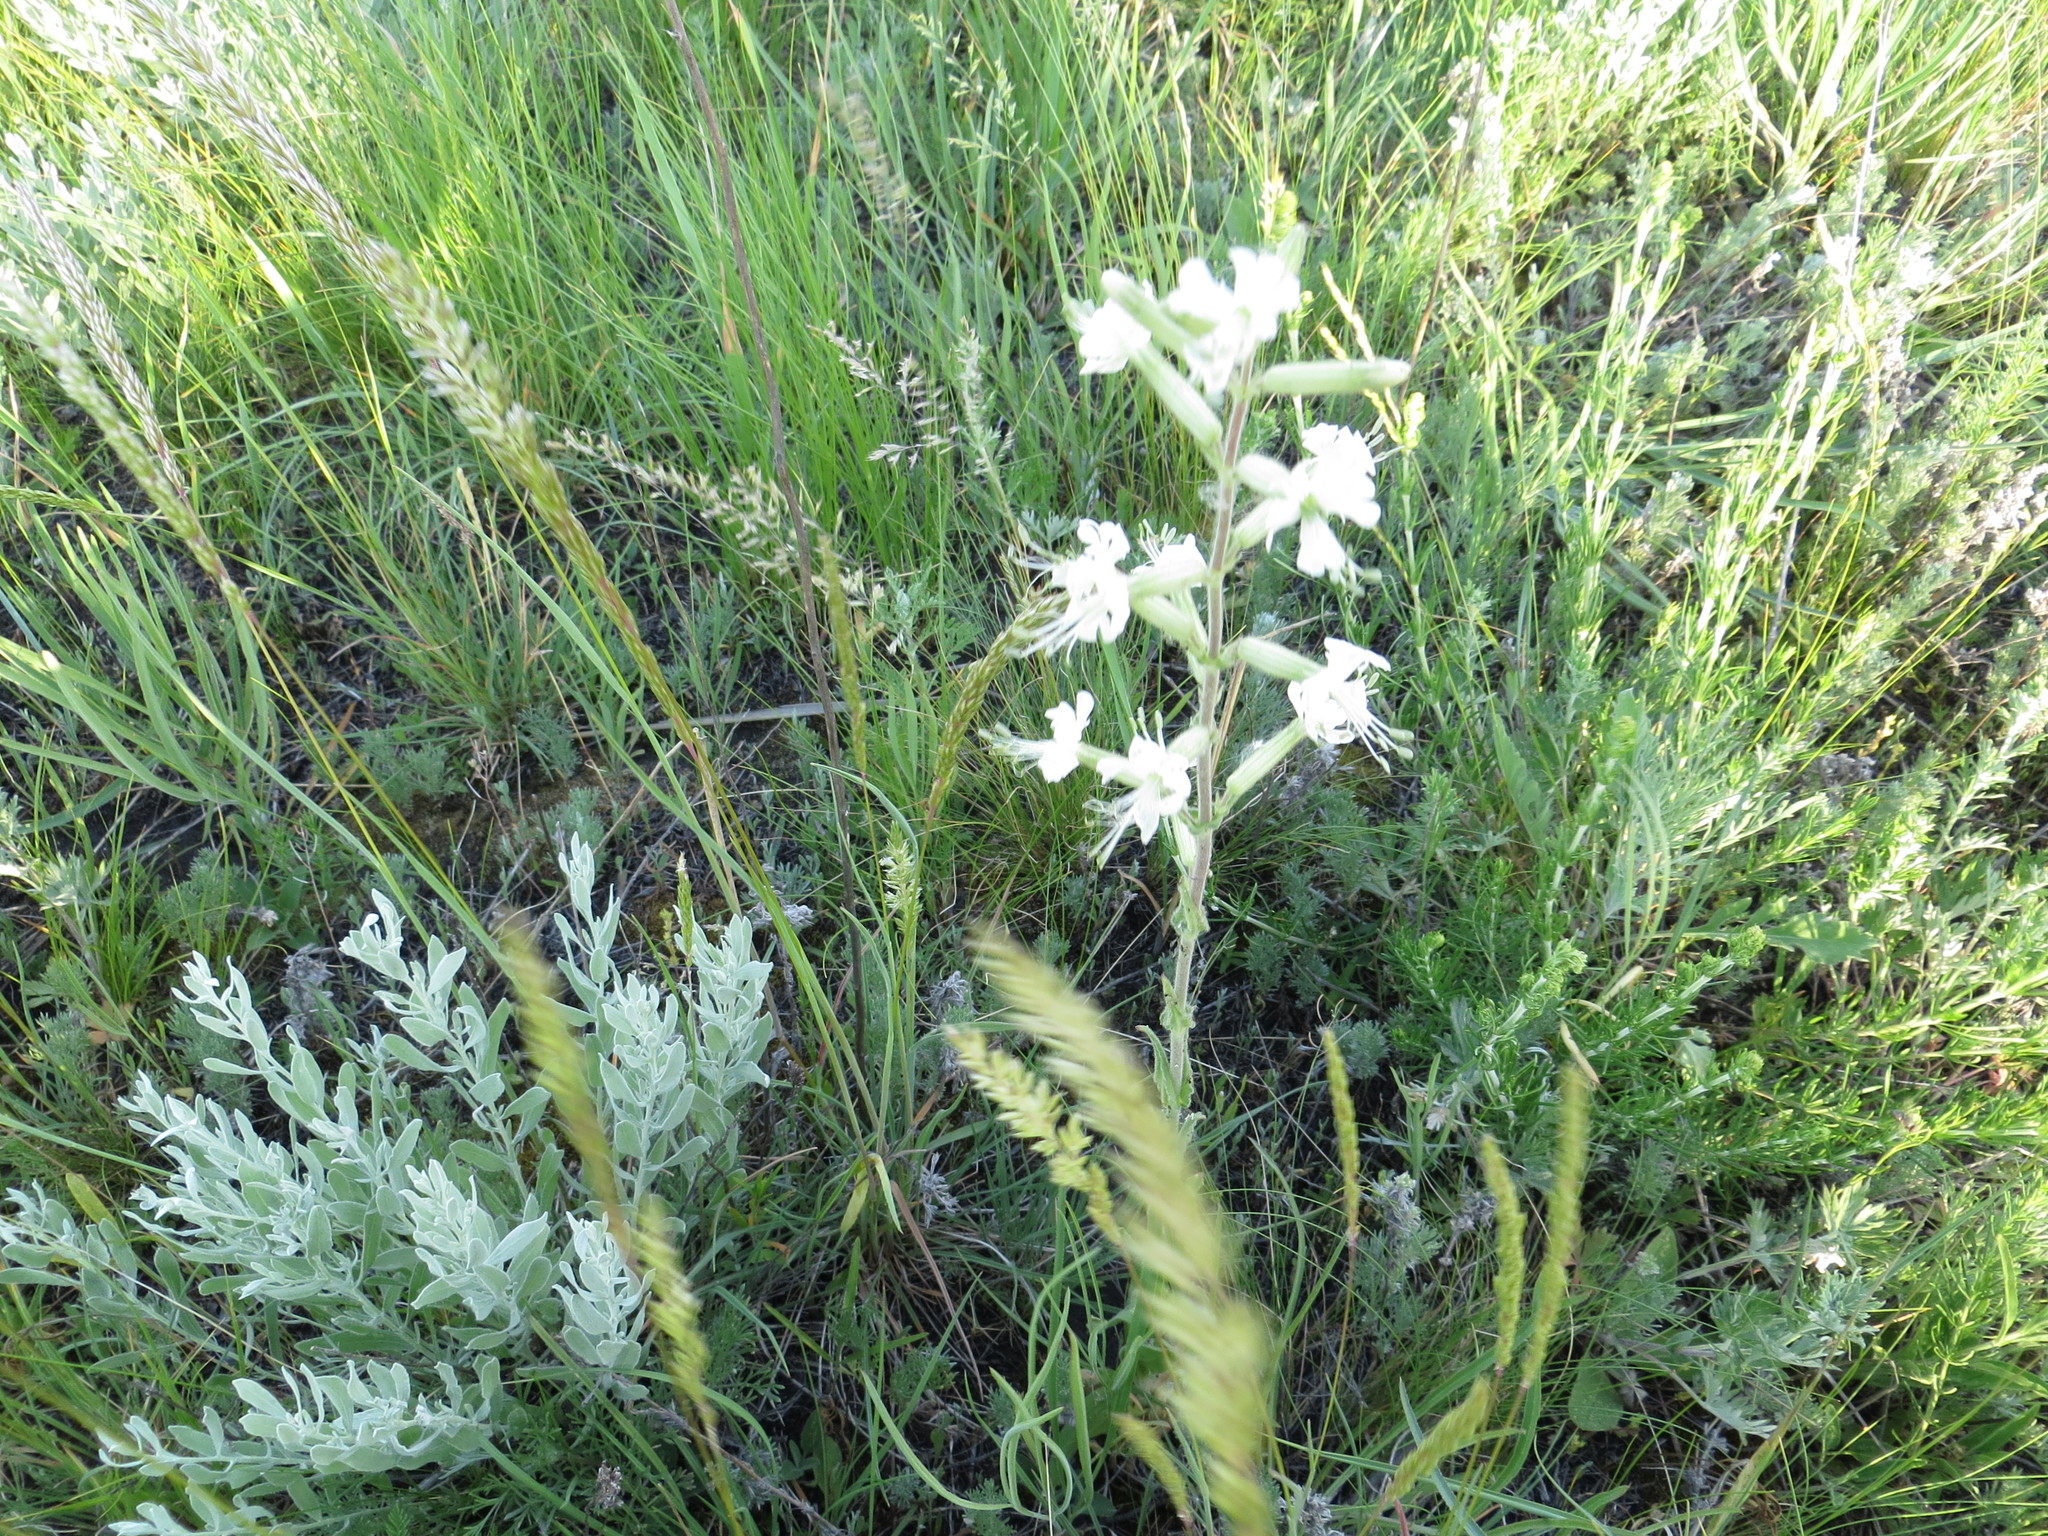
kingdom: Plantae
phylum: Tracheophyta
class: Magnoliopsida
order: Caryophyllales
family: Caryophyllaceae
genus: Silene
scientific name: Silene viscosa
